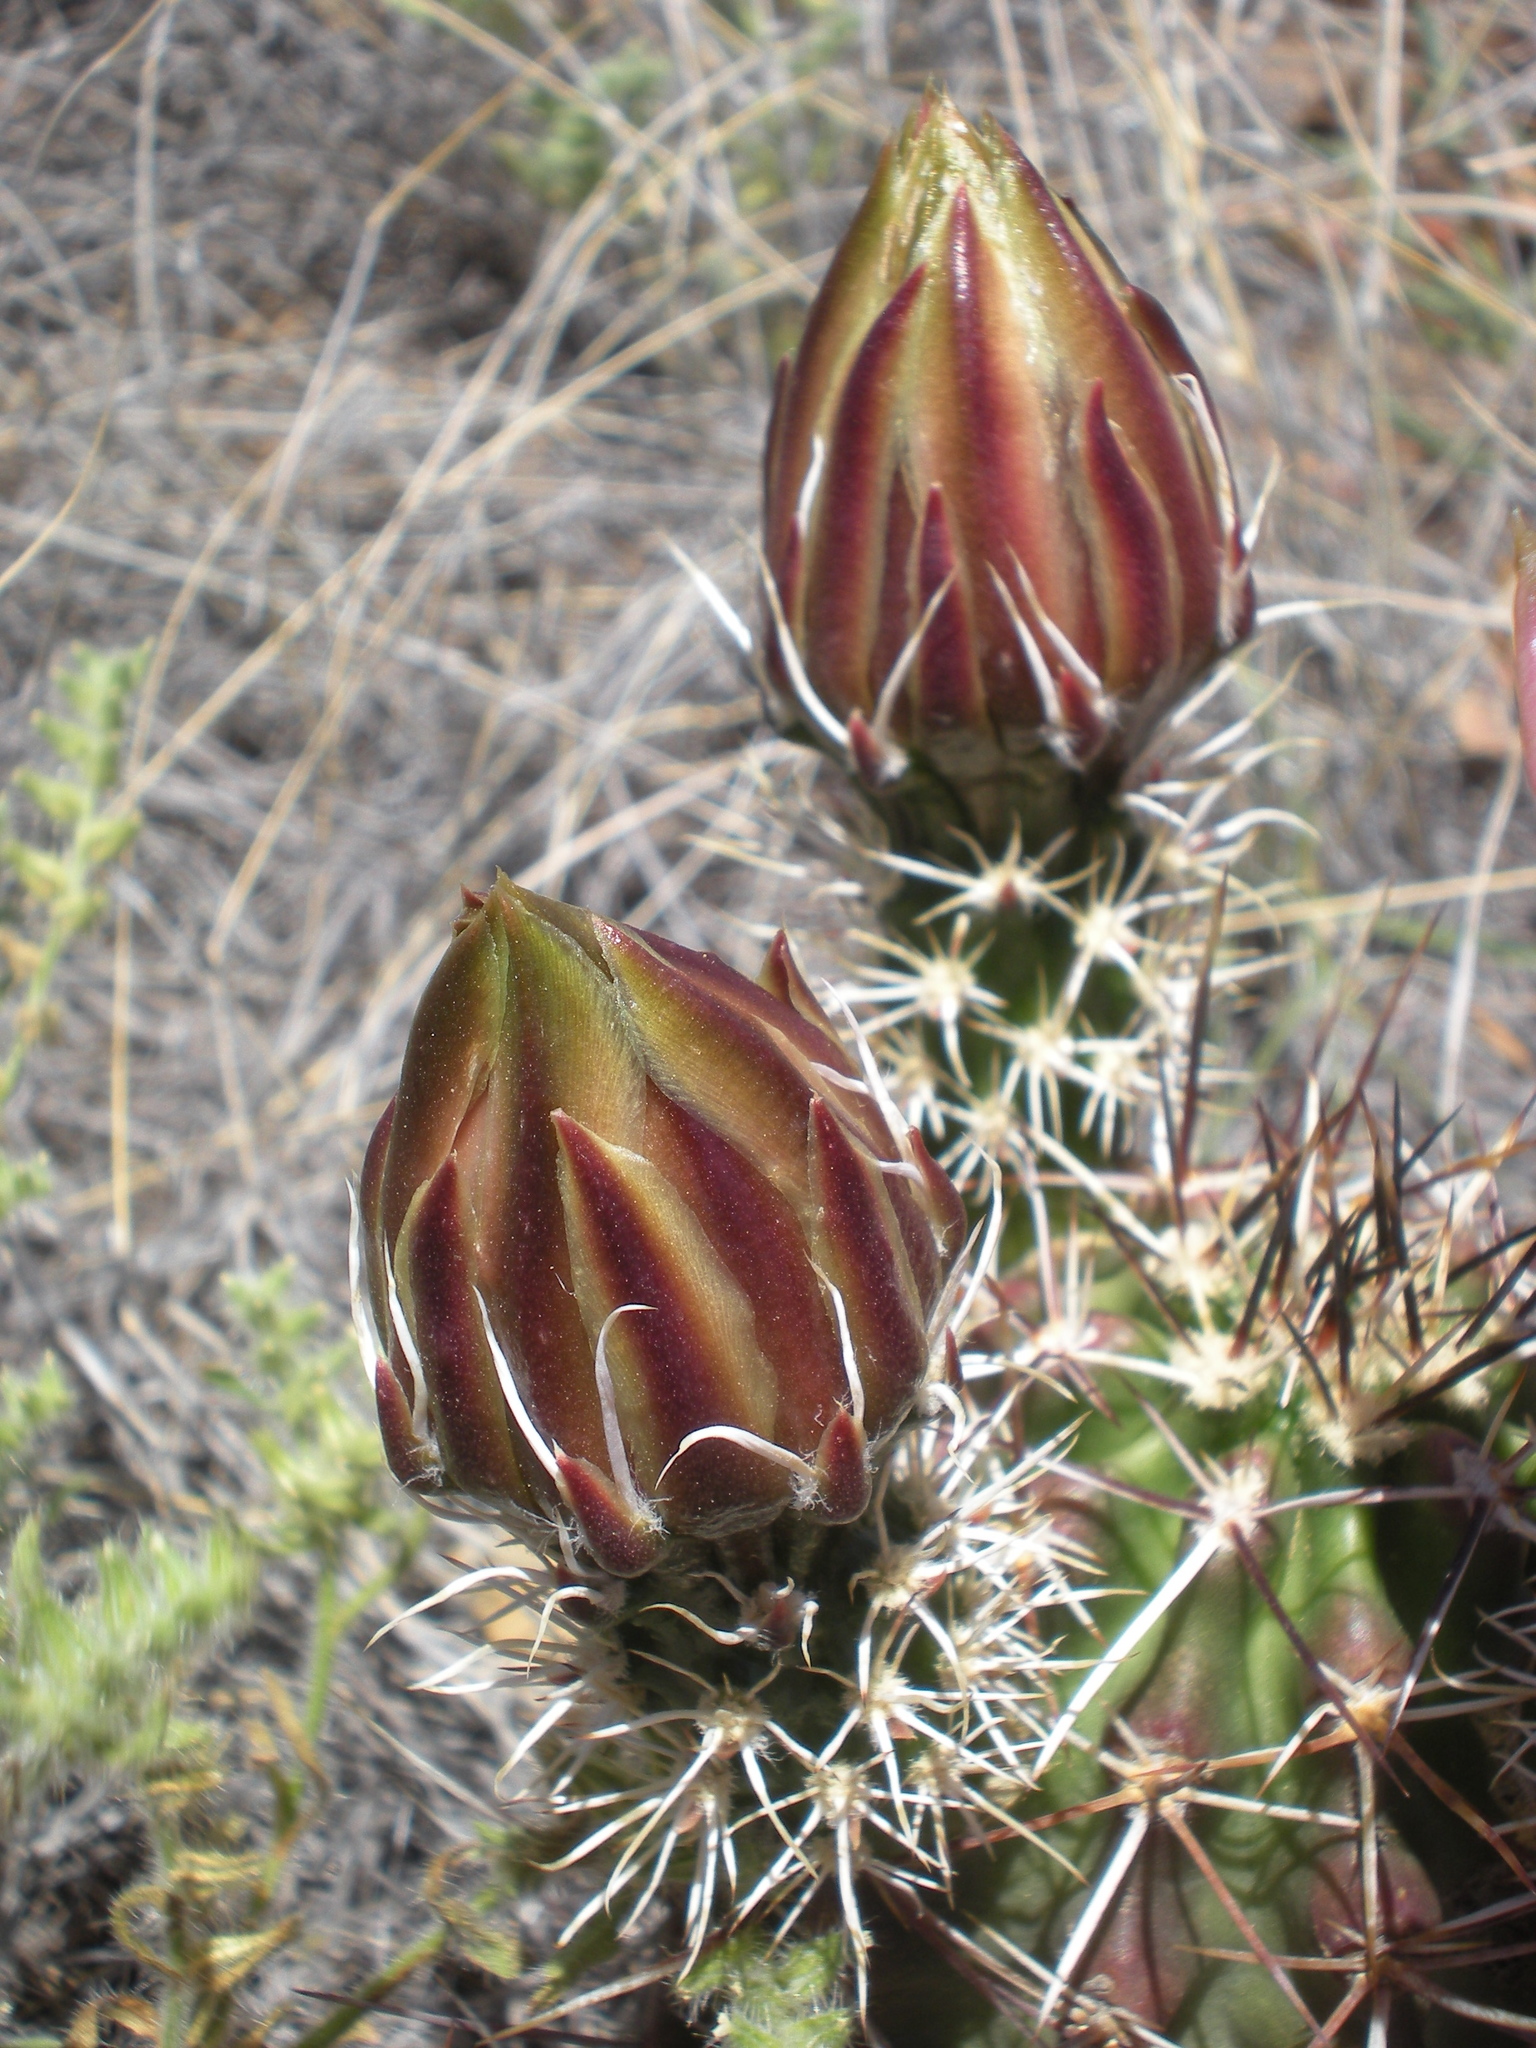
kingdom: Plantae
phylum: Tracheophyta
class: Magnoliopsida
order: Caryophyllales
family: Cactaceae
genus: Echinocereus
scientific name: Echinocereus fendleri
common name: Fendler's hedgehog cactus
